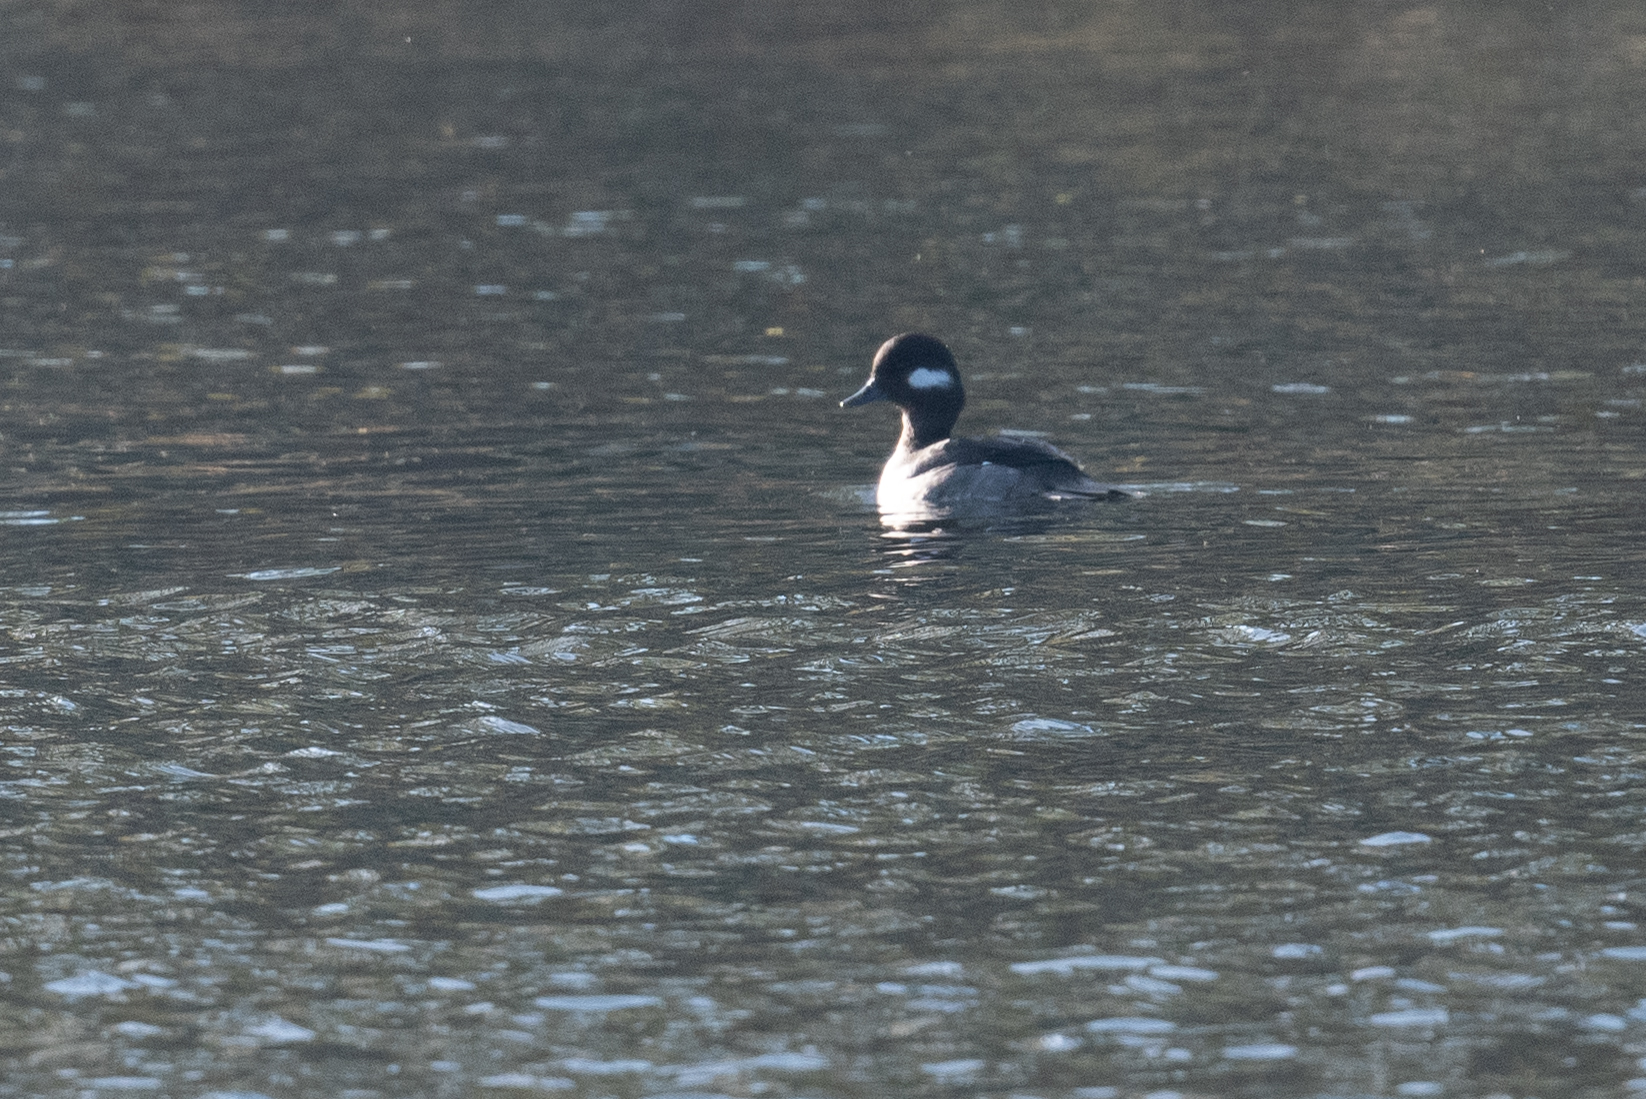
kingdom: Animalia
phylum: Chordata
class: Aves
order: Anseriformes
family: Anatidae
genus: Bucephala
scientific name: Bucephala albeola
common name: Bufflehead
